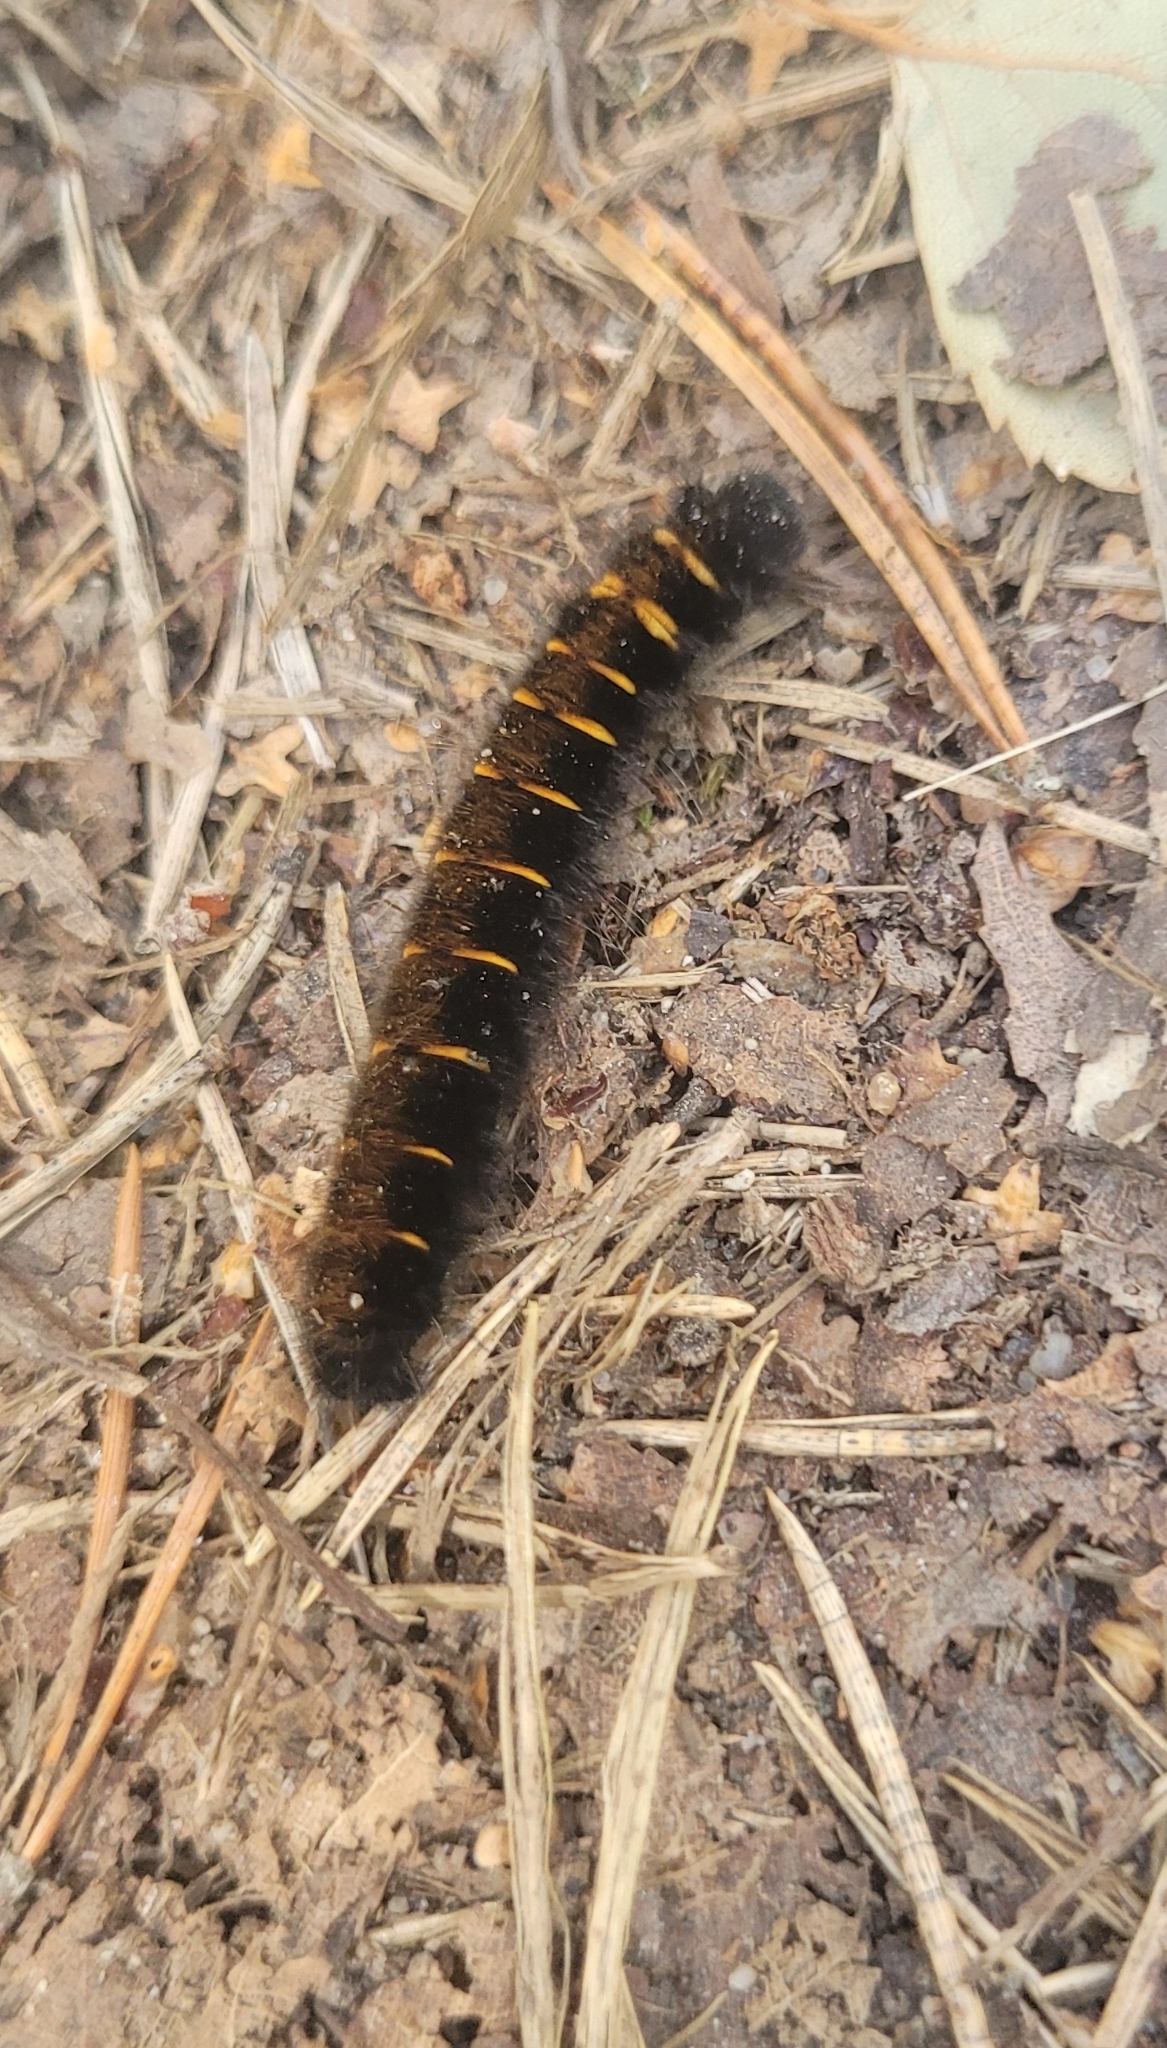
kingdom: Animalia
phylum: Arthropoda
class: Insecta
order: Lepidoptera
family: Lasiocampidae
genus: Macrothylacia
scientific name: Macrothylacia rubi
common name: Fox moth
